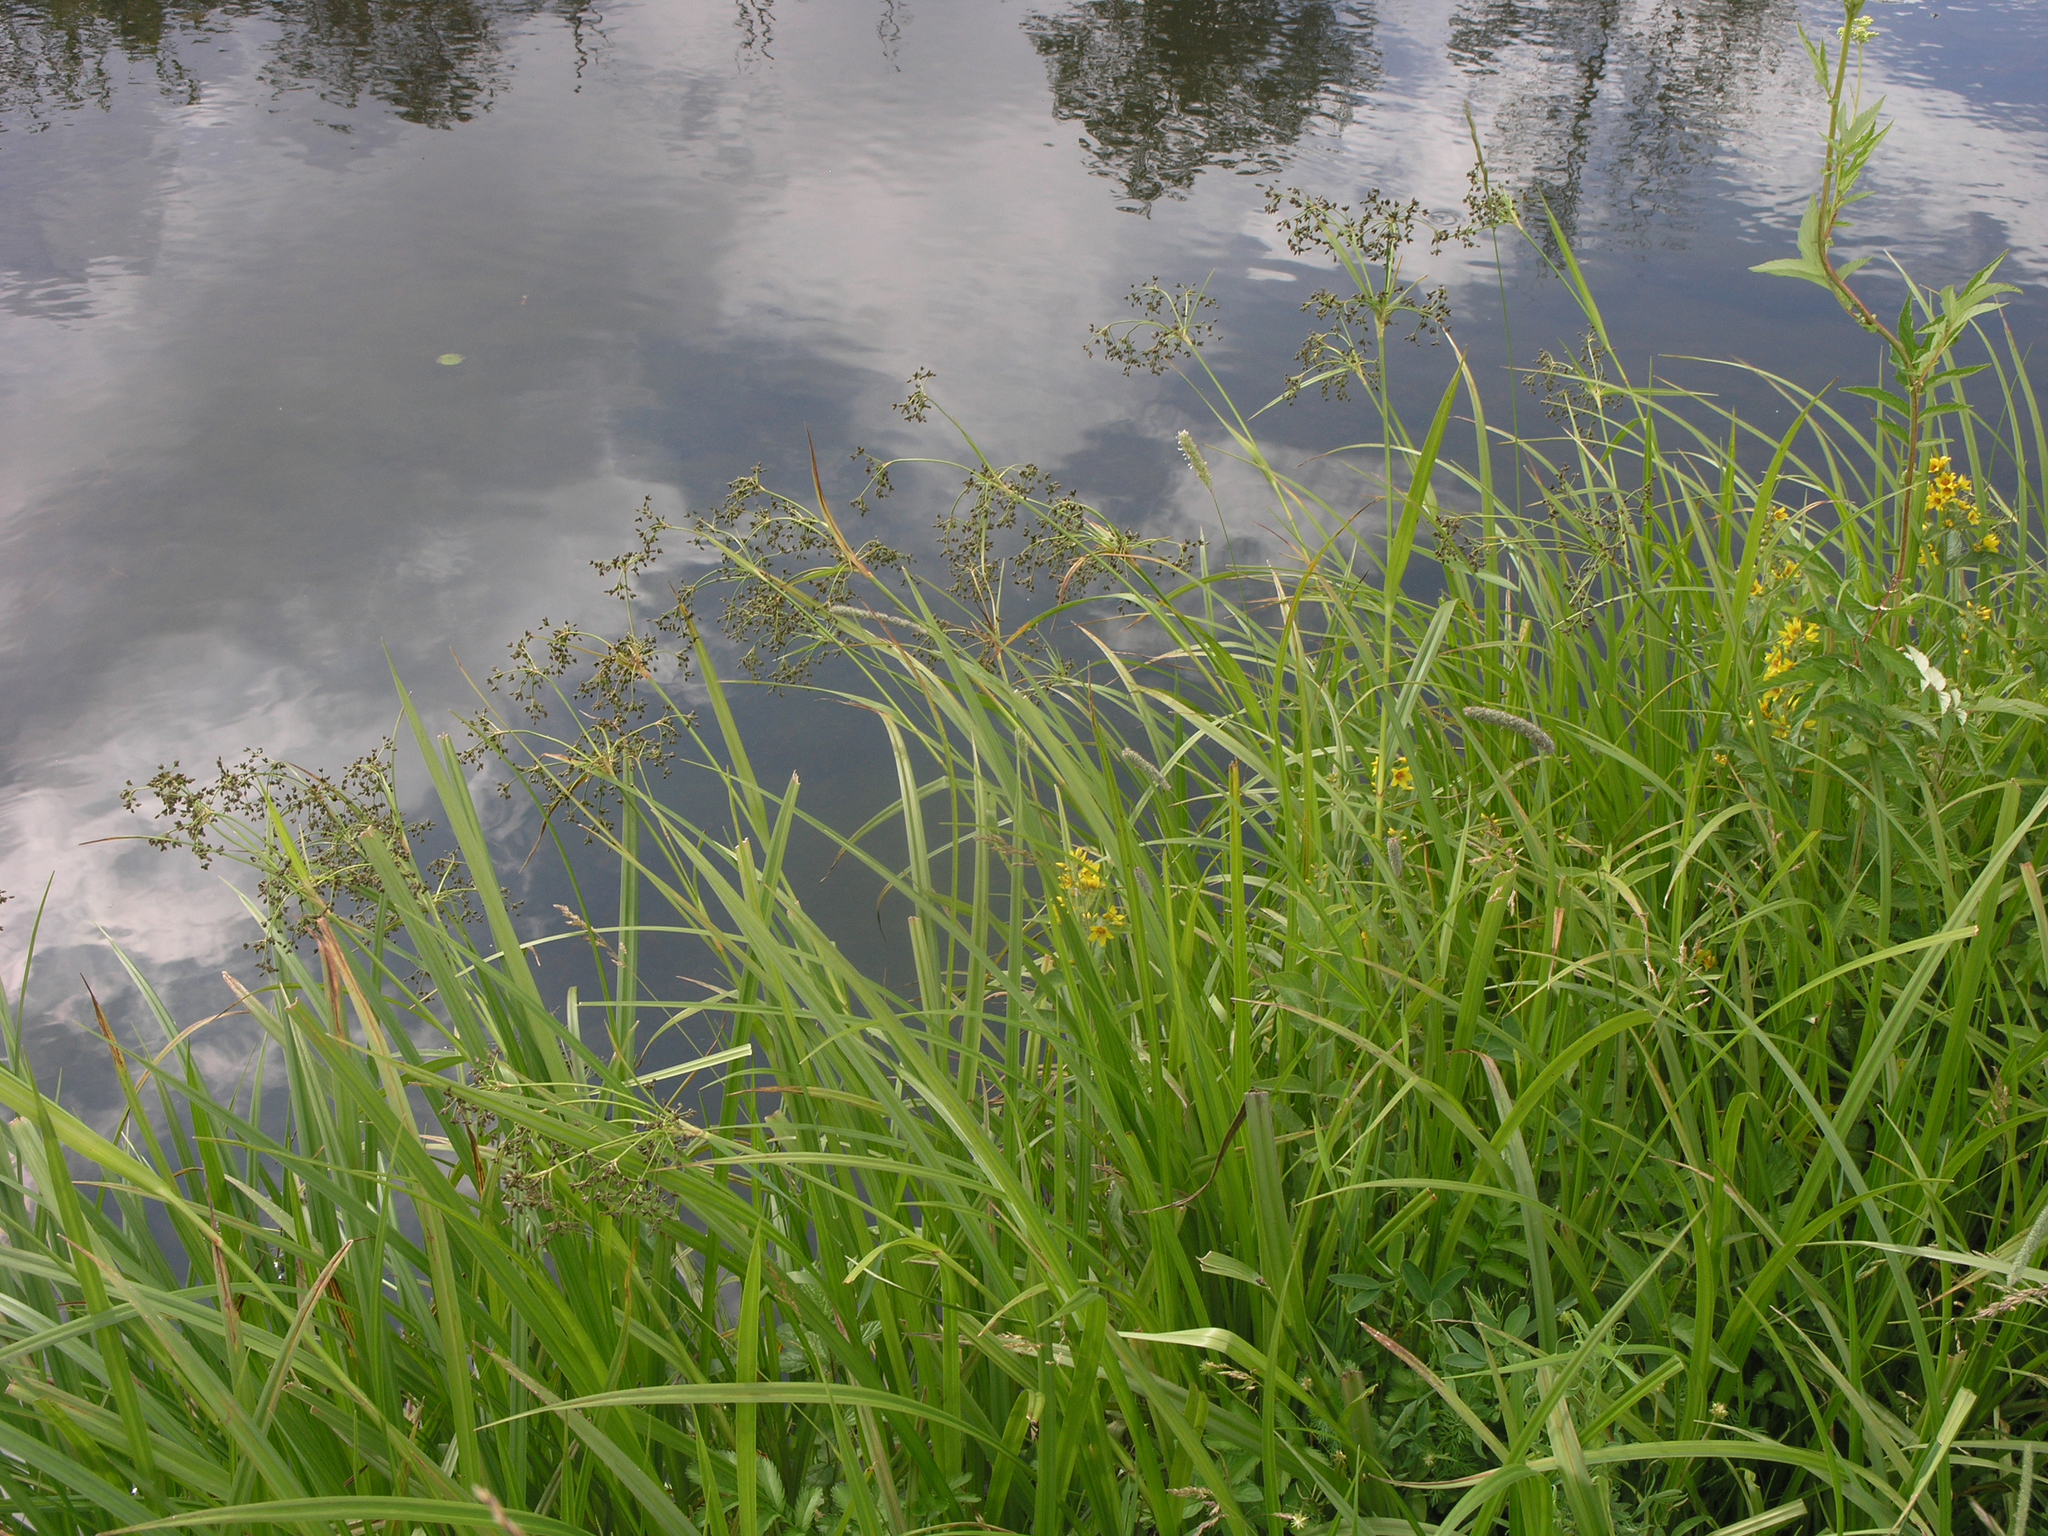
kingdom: Plantae
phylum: Tracheophyta
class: Liliopsida
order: Poales
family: Cyperaceae
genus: Scirpus
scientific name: Scirpus sylvaticus
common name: Wood club-rush
